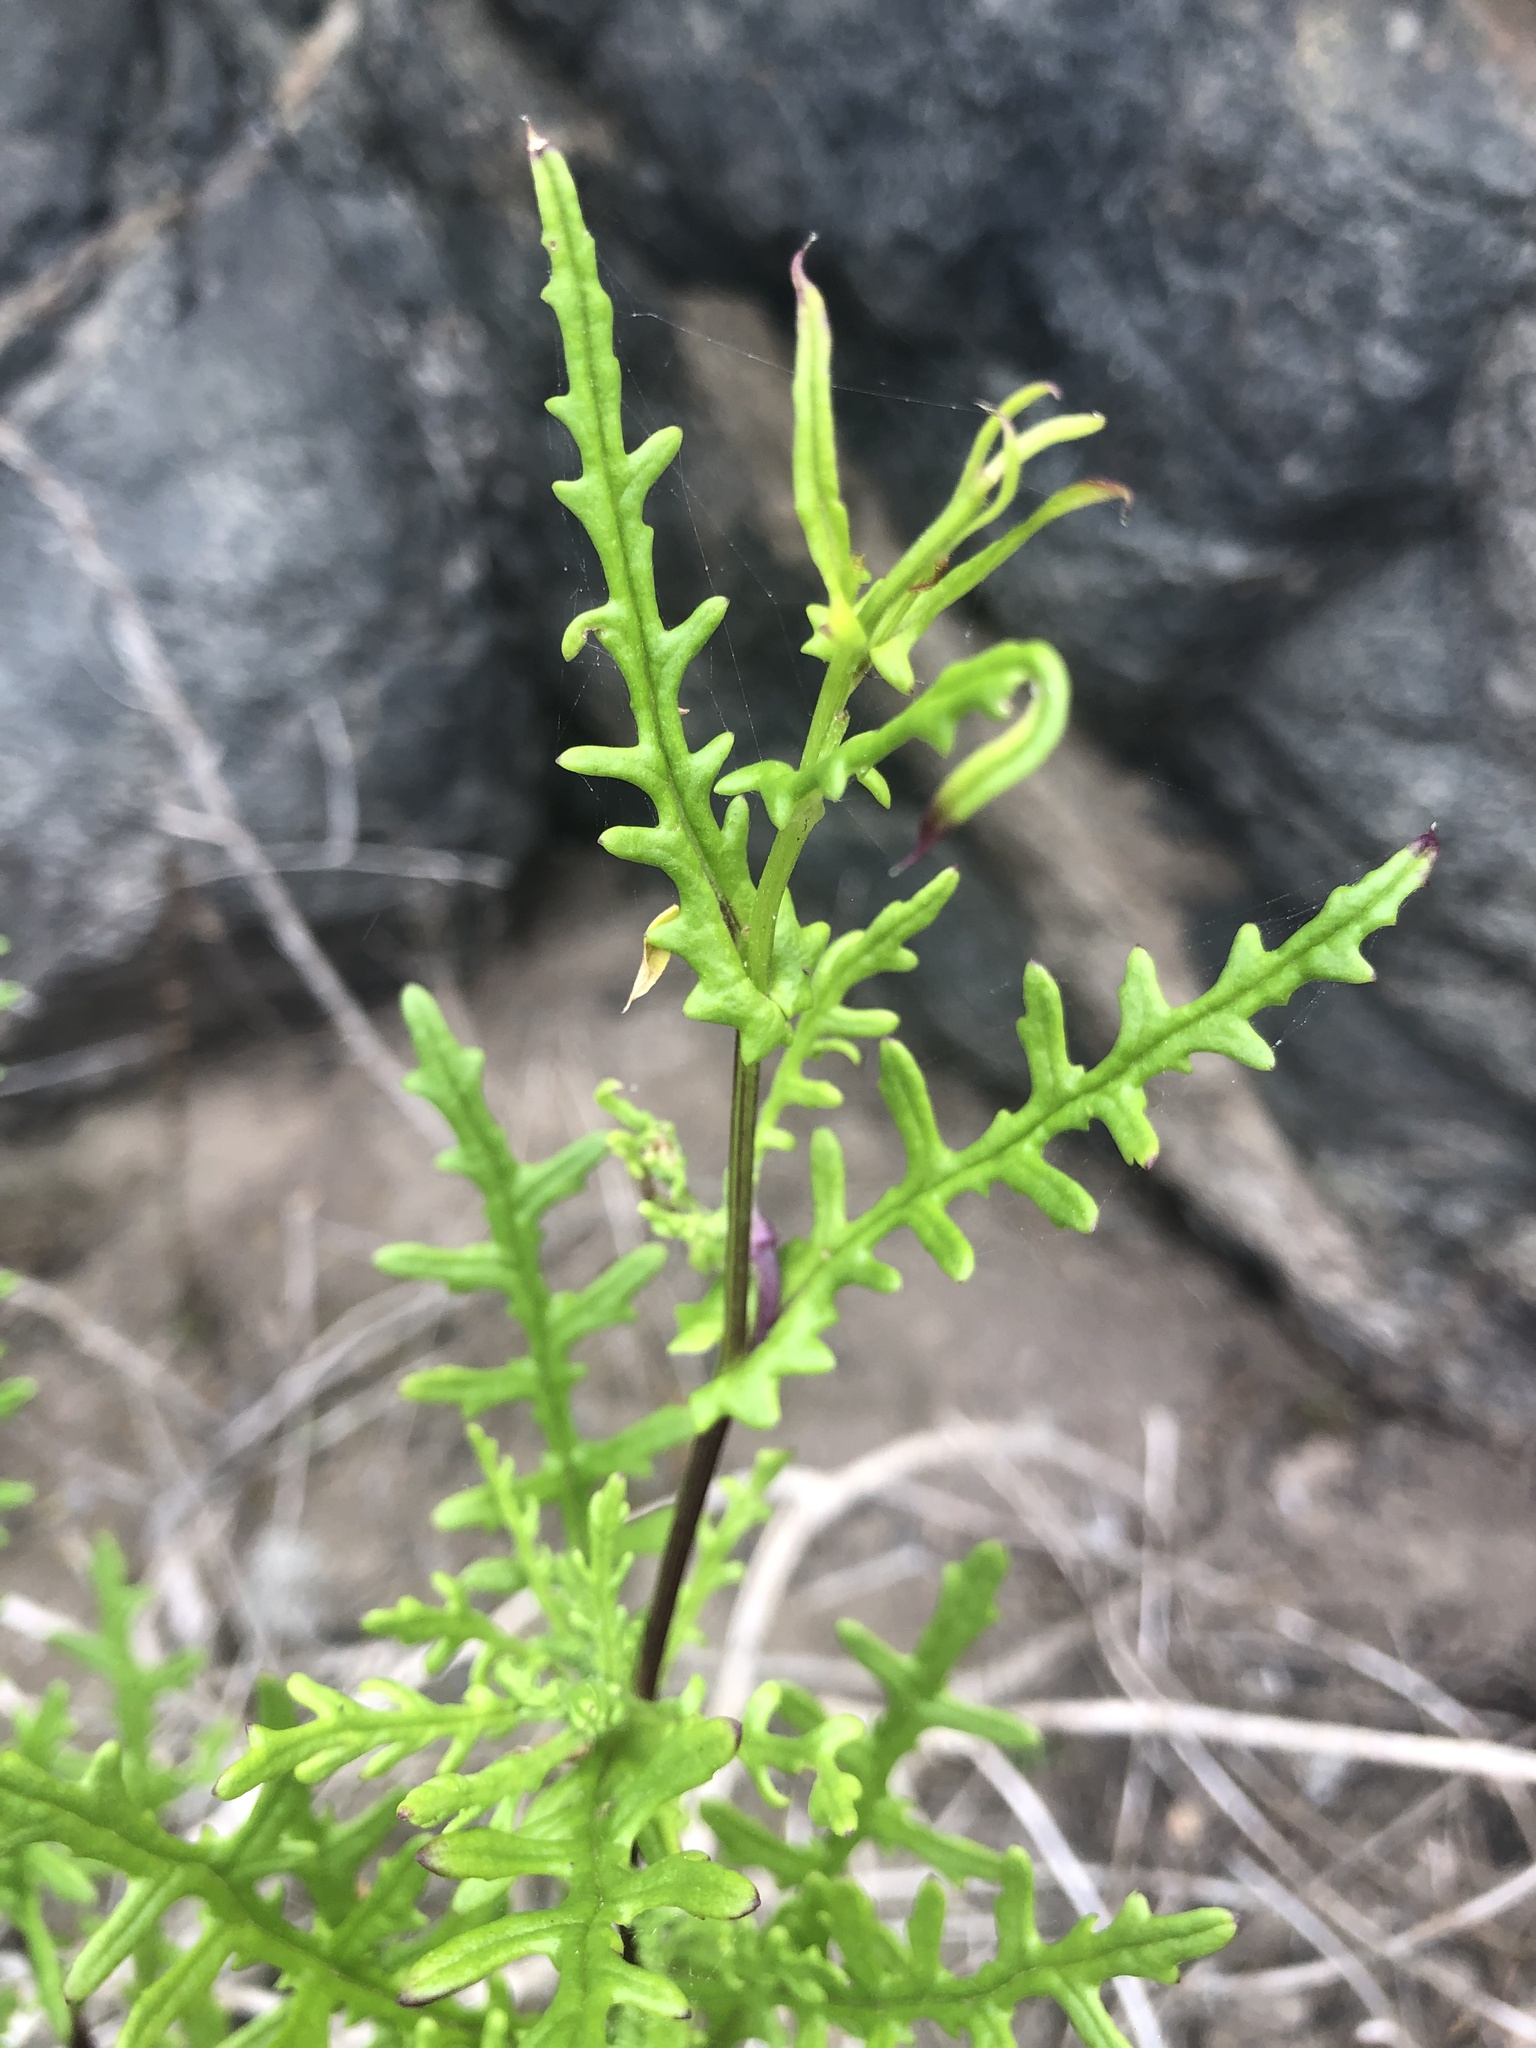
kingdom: Plantae
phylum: Tracheophyta
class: Magnoliopsida
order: Asterales
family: Asteraceae
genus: Polyachyrus
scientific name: Polyachyrus poeppigii
